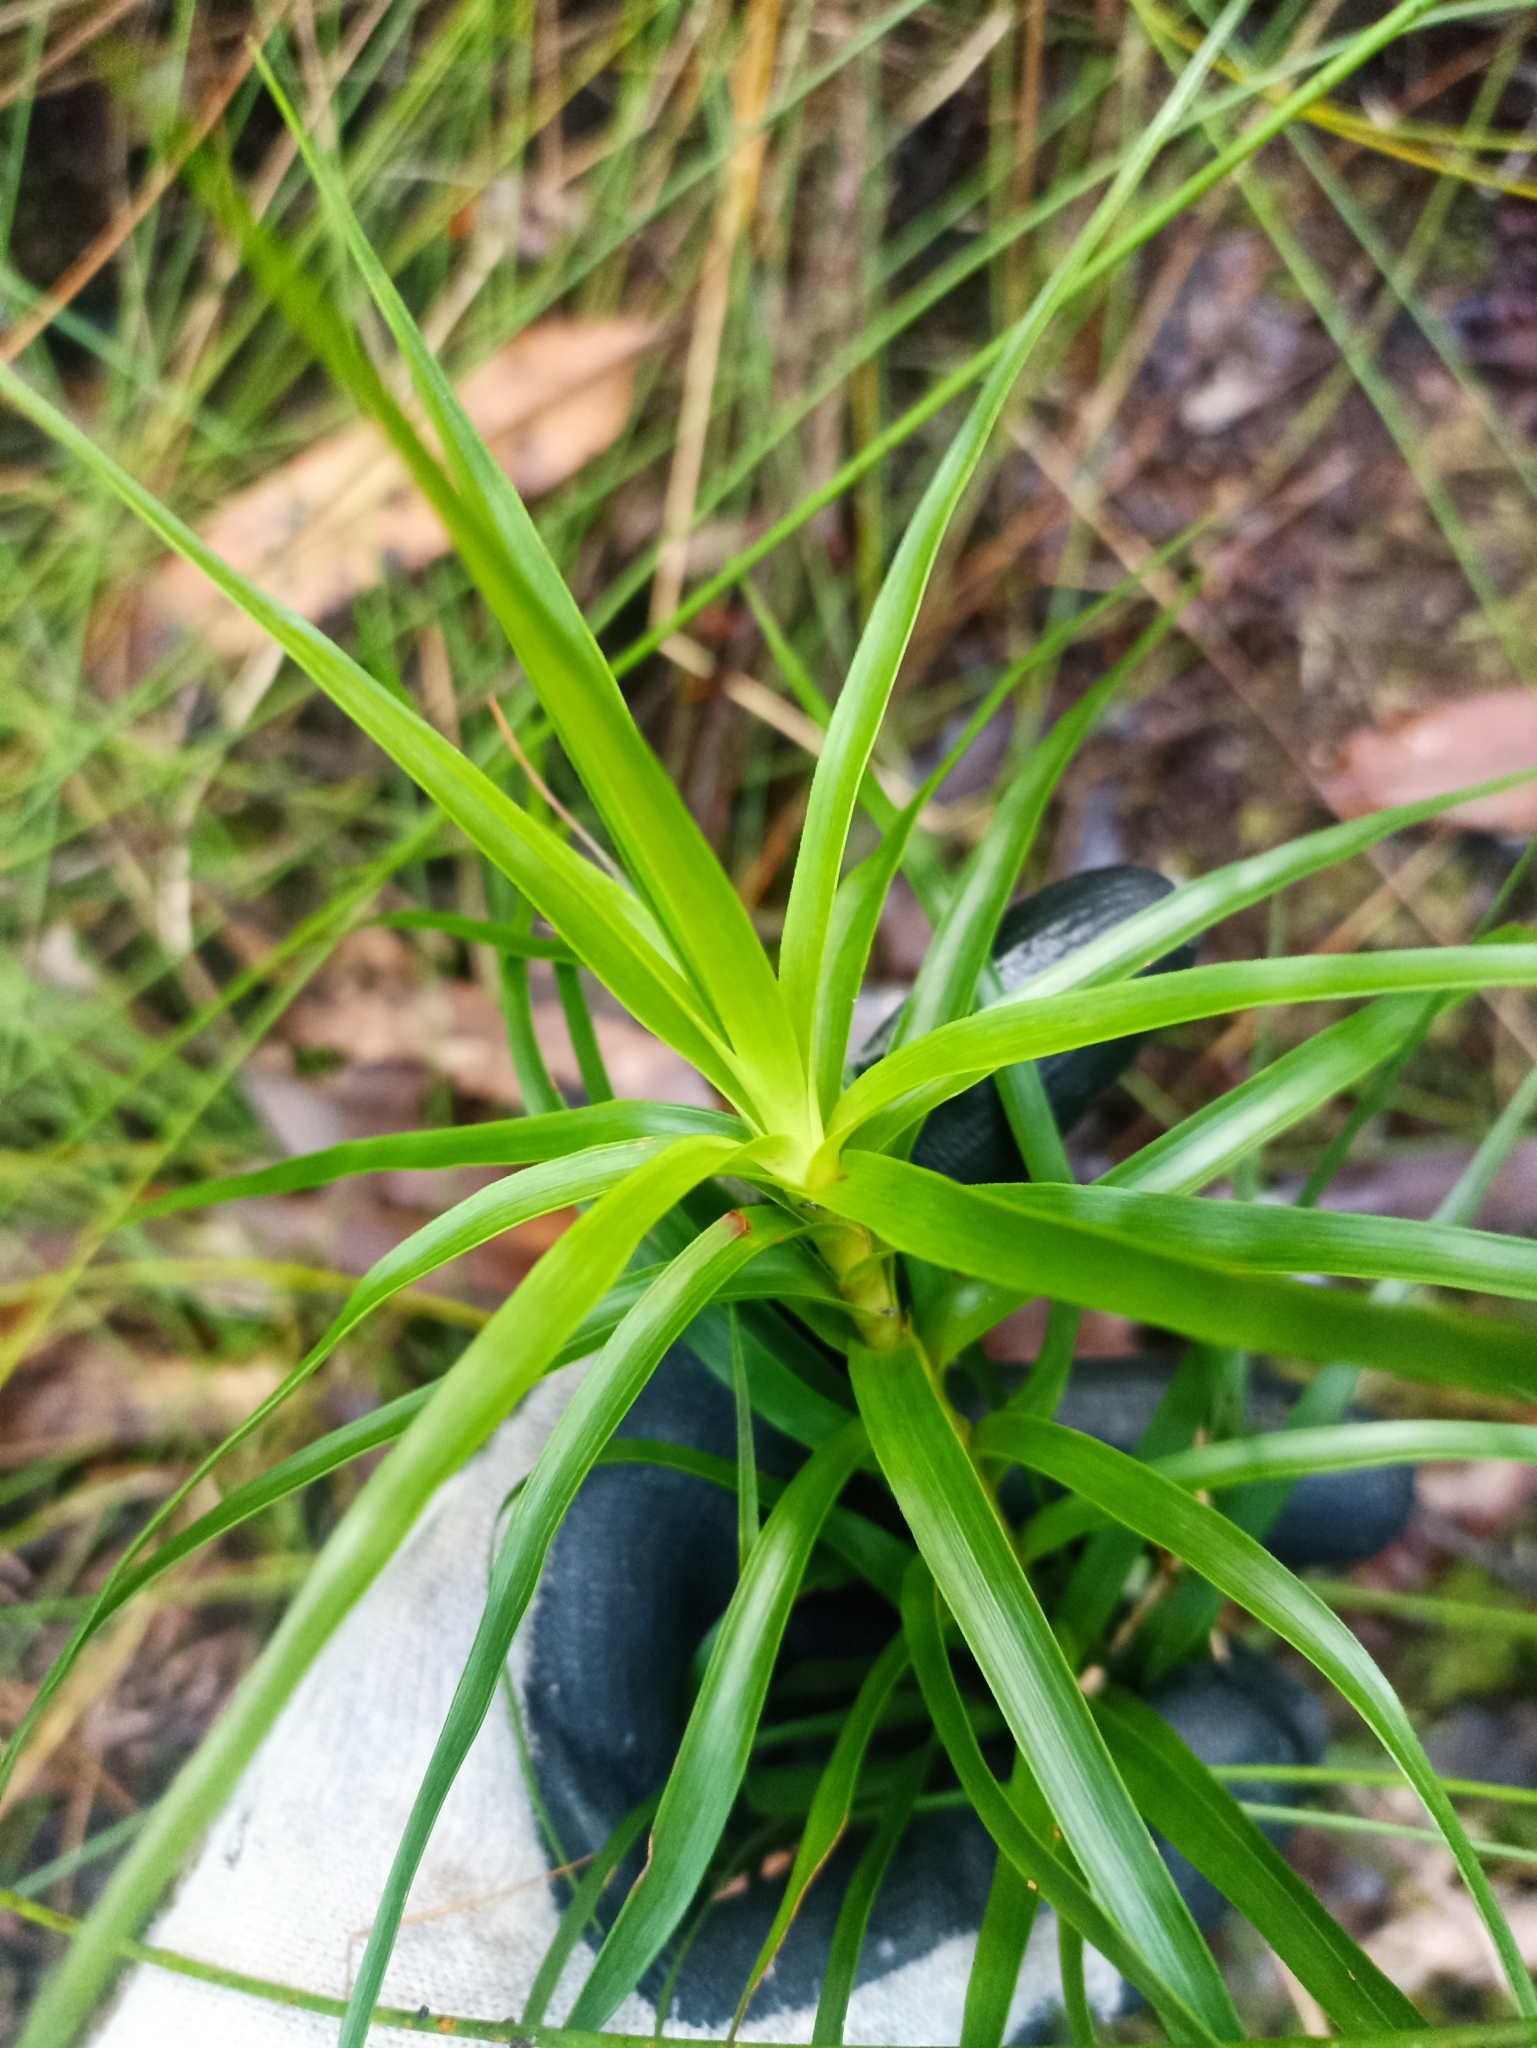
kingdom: Plantae
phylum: Tracheophyta
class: Magnoliopsida
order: Ericales
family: Ericaceae
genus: Dracophyllum
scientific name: Dracophyllum sinclairii
